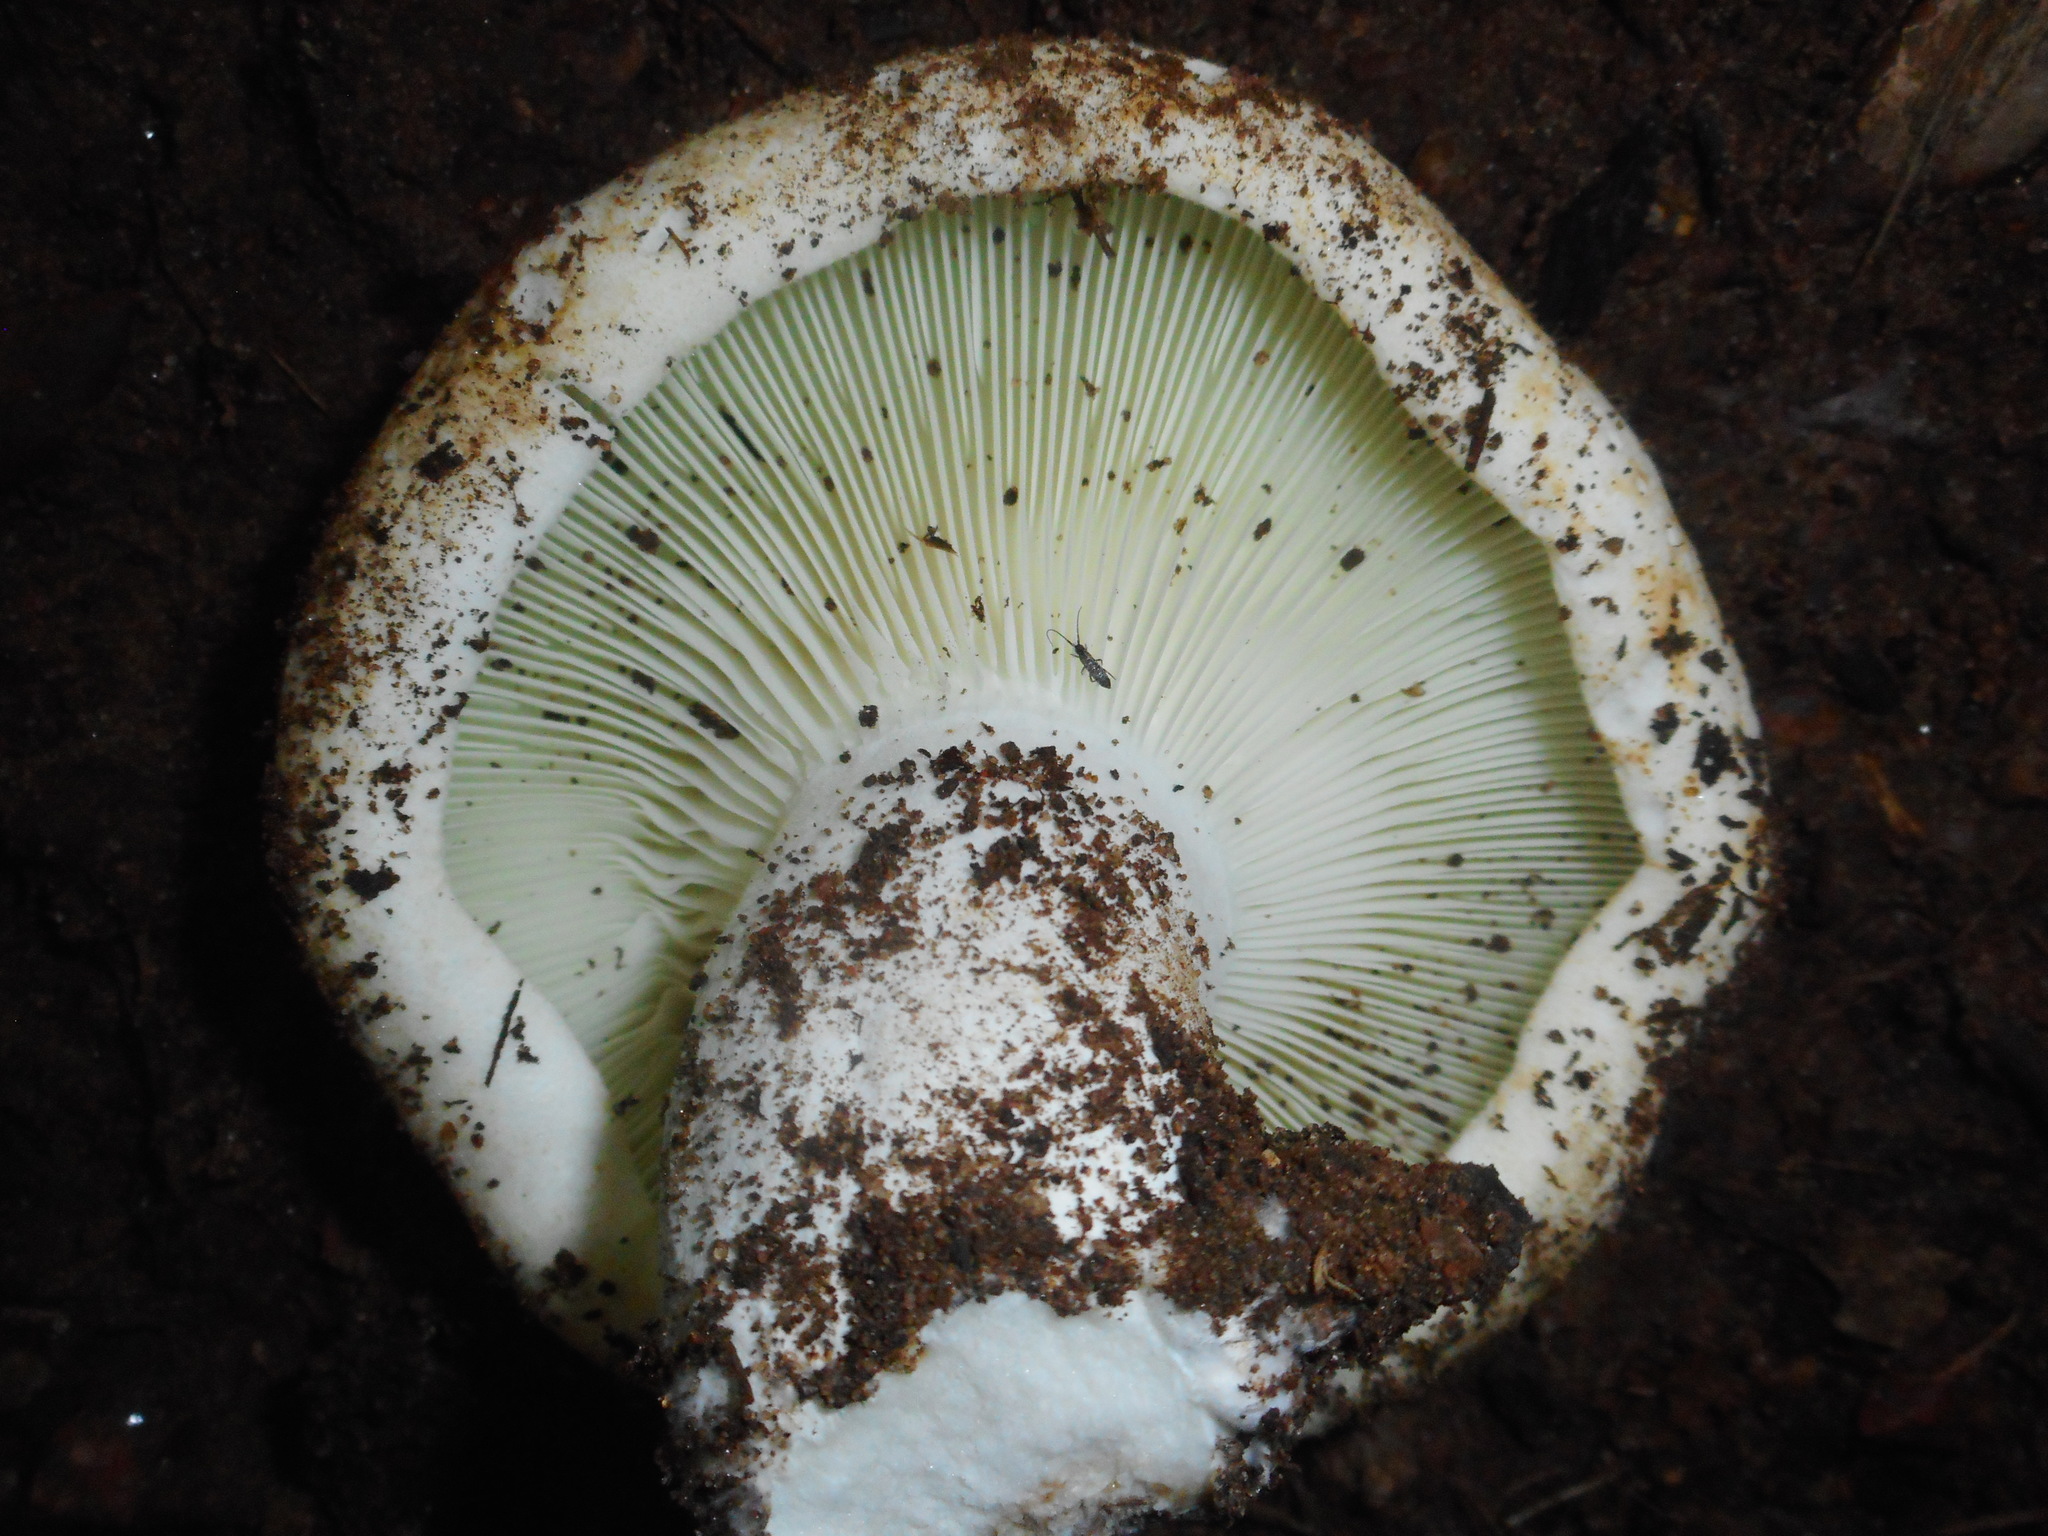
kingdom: Fungi
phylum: Basidiomycota
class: Agaricomycetes
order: Russulales
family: Russulaceae
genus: Russula
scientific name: Russula chloroides
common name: Blue band brittlegill
